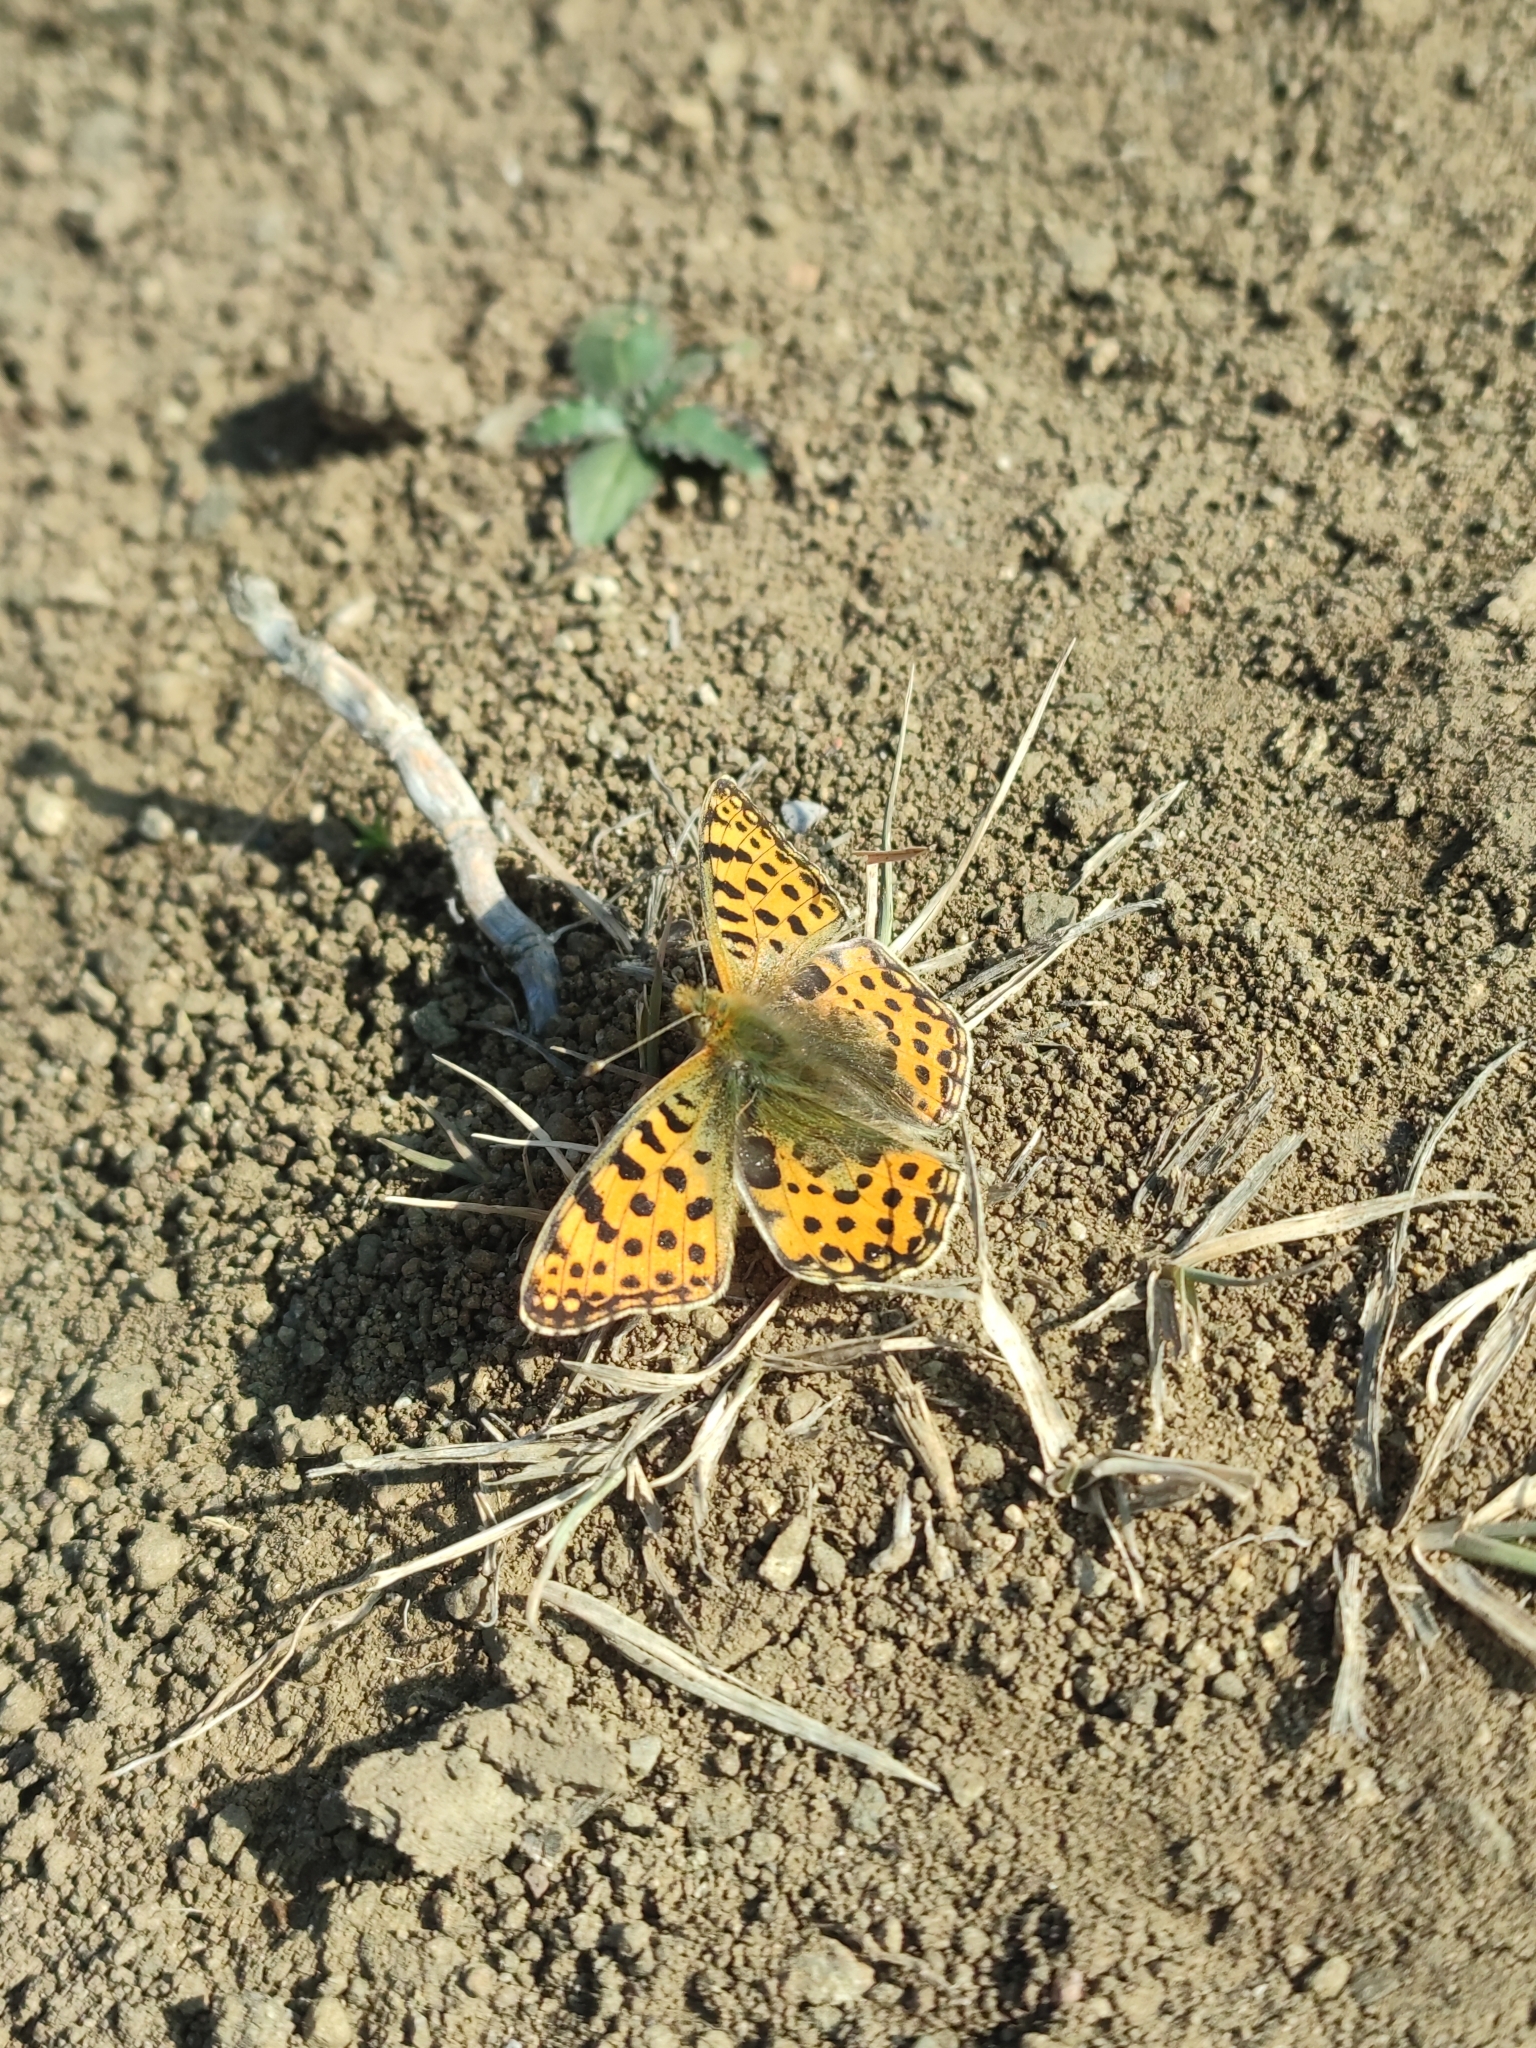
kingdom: Animalia
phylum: Arthropoda
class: Insecta
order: Lepidoptera
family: Nymphalidae
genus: Issoria
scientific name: Issoria lathonia
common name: Queen of spain fritillary
